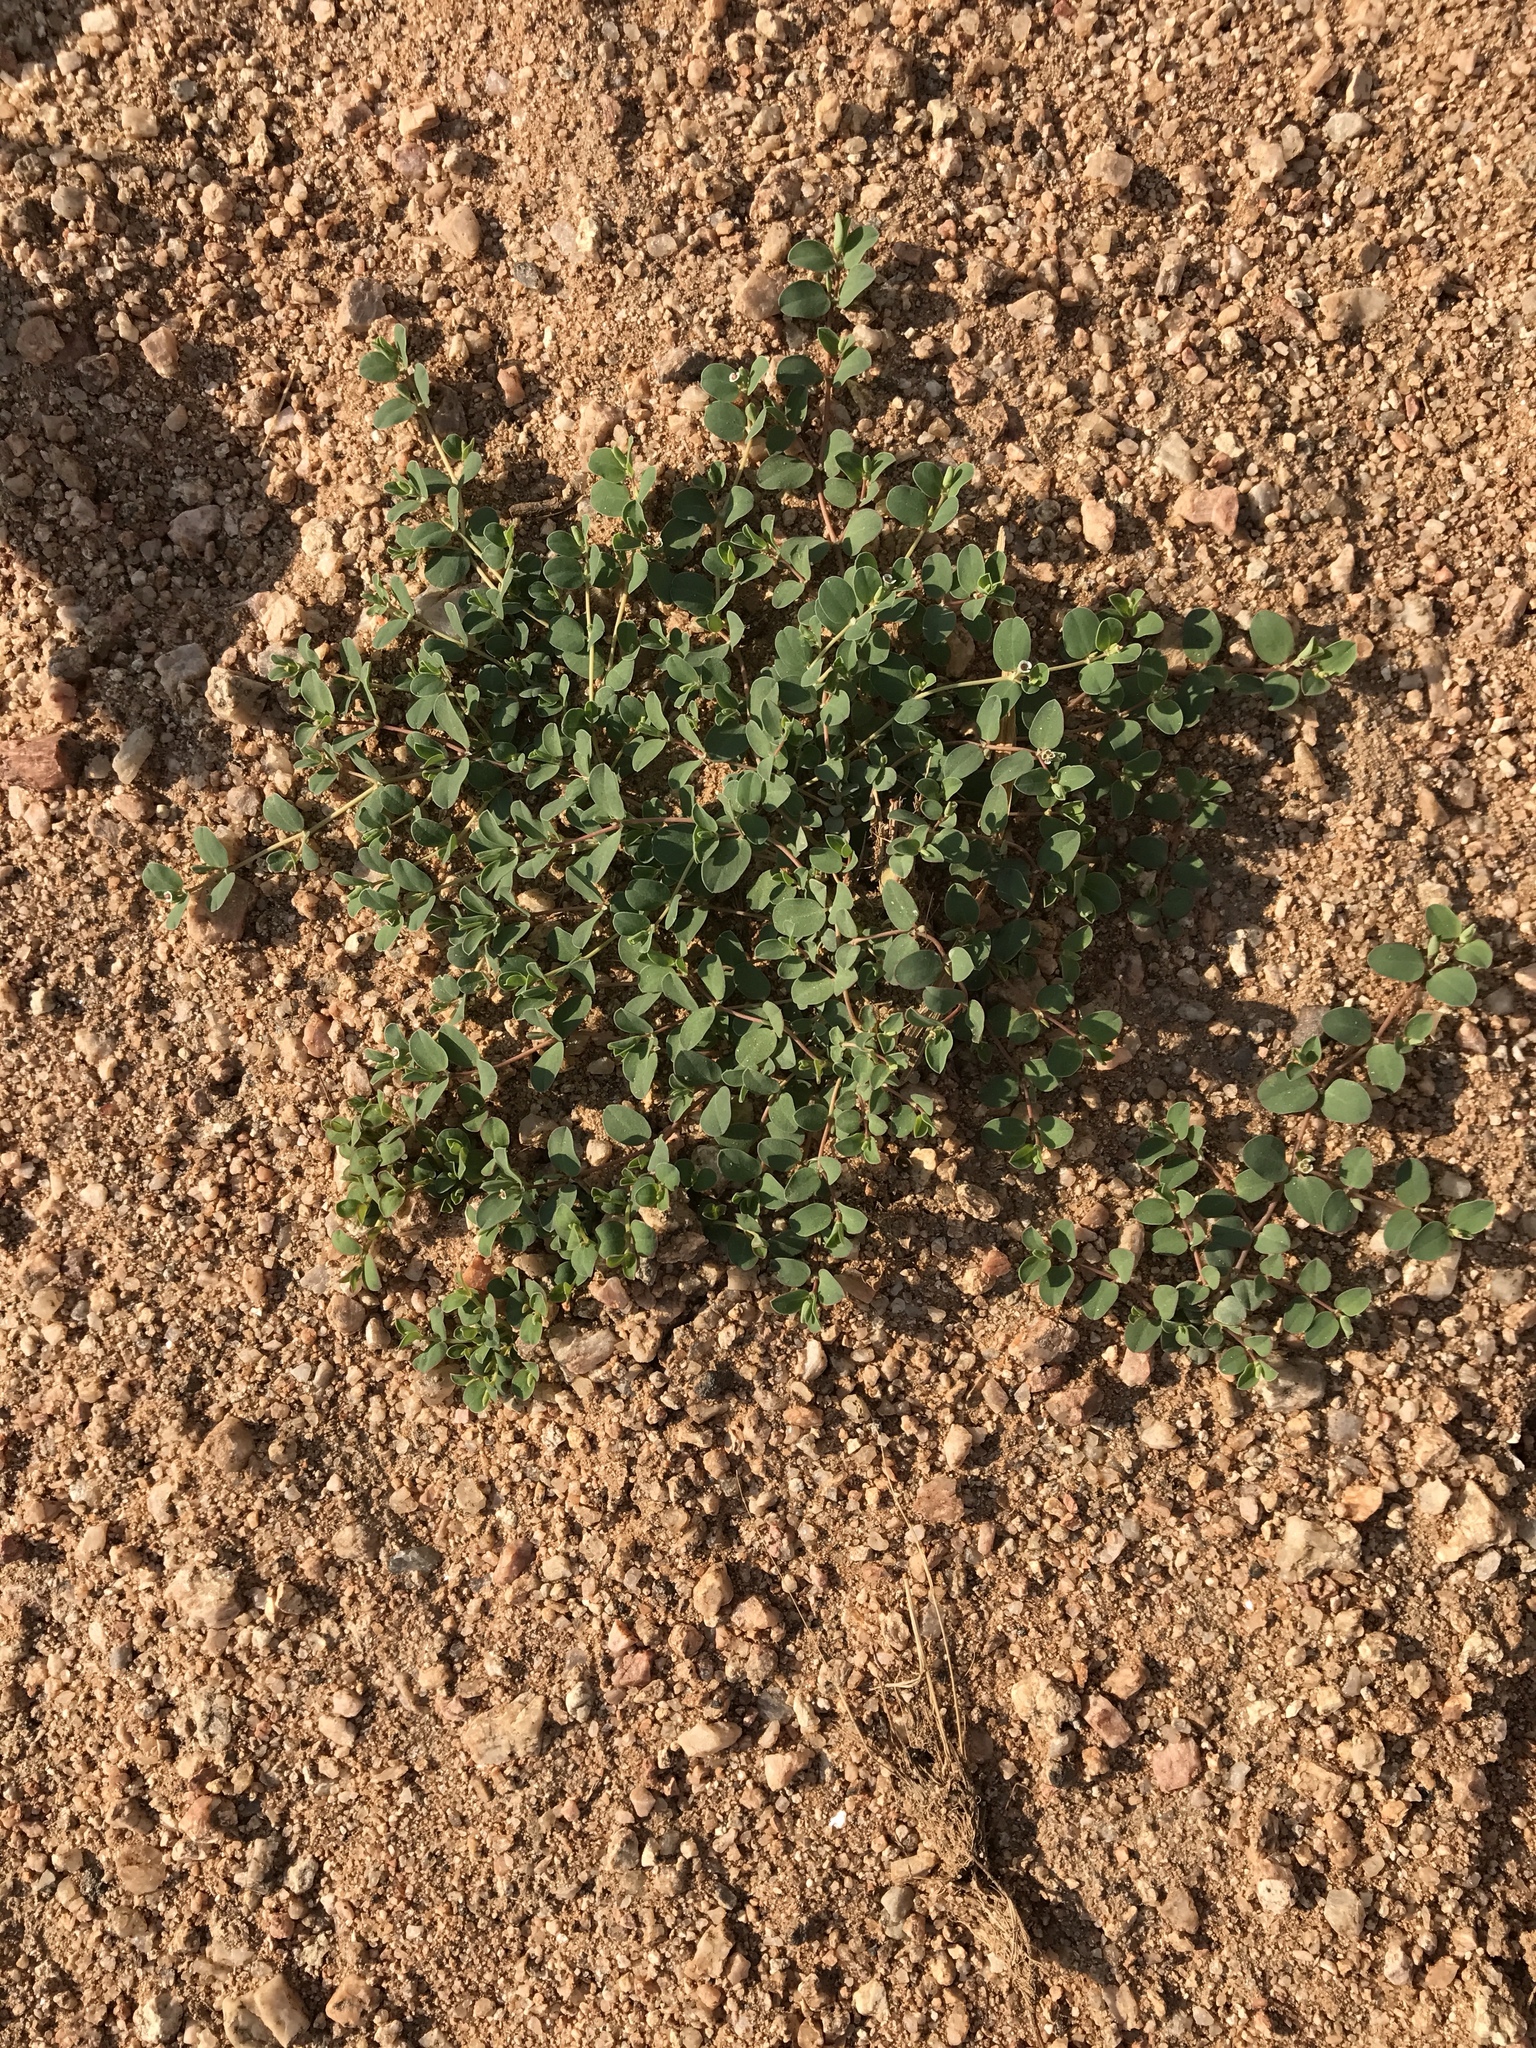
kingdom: Plantae
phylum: Tracheophyta
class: Magnoliopsida
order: Malpighiales
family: Euphorbiaceae
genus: Euphorbia
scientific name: Euphorbia albomarginata
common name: Whitemargin sandmat
